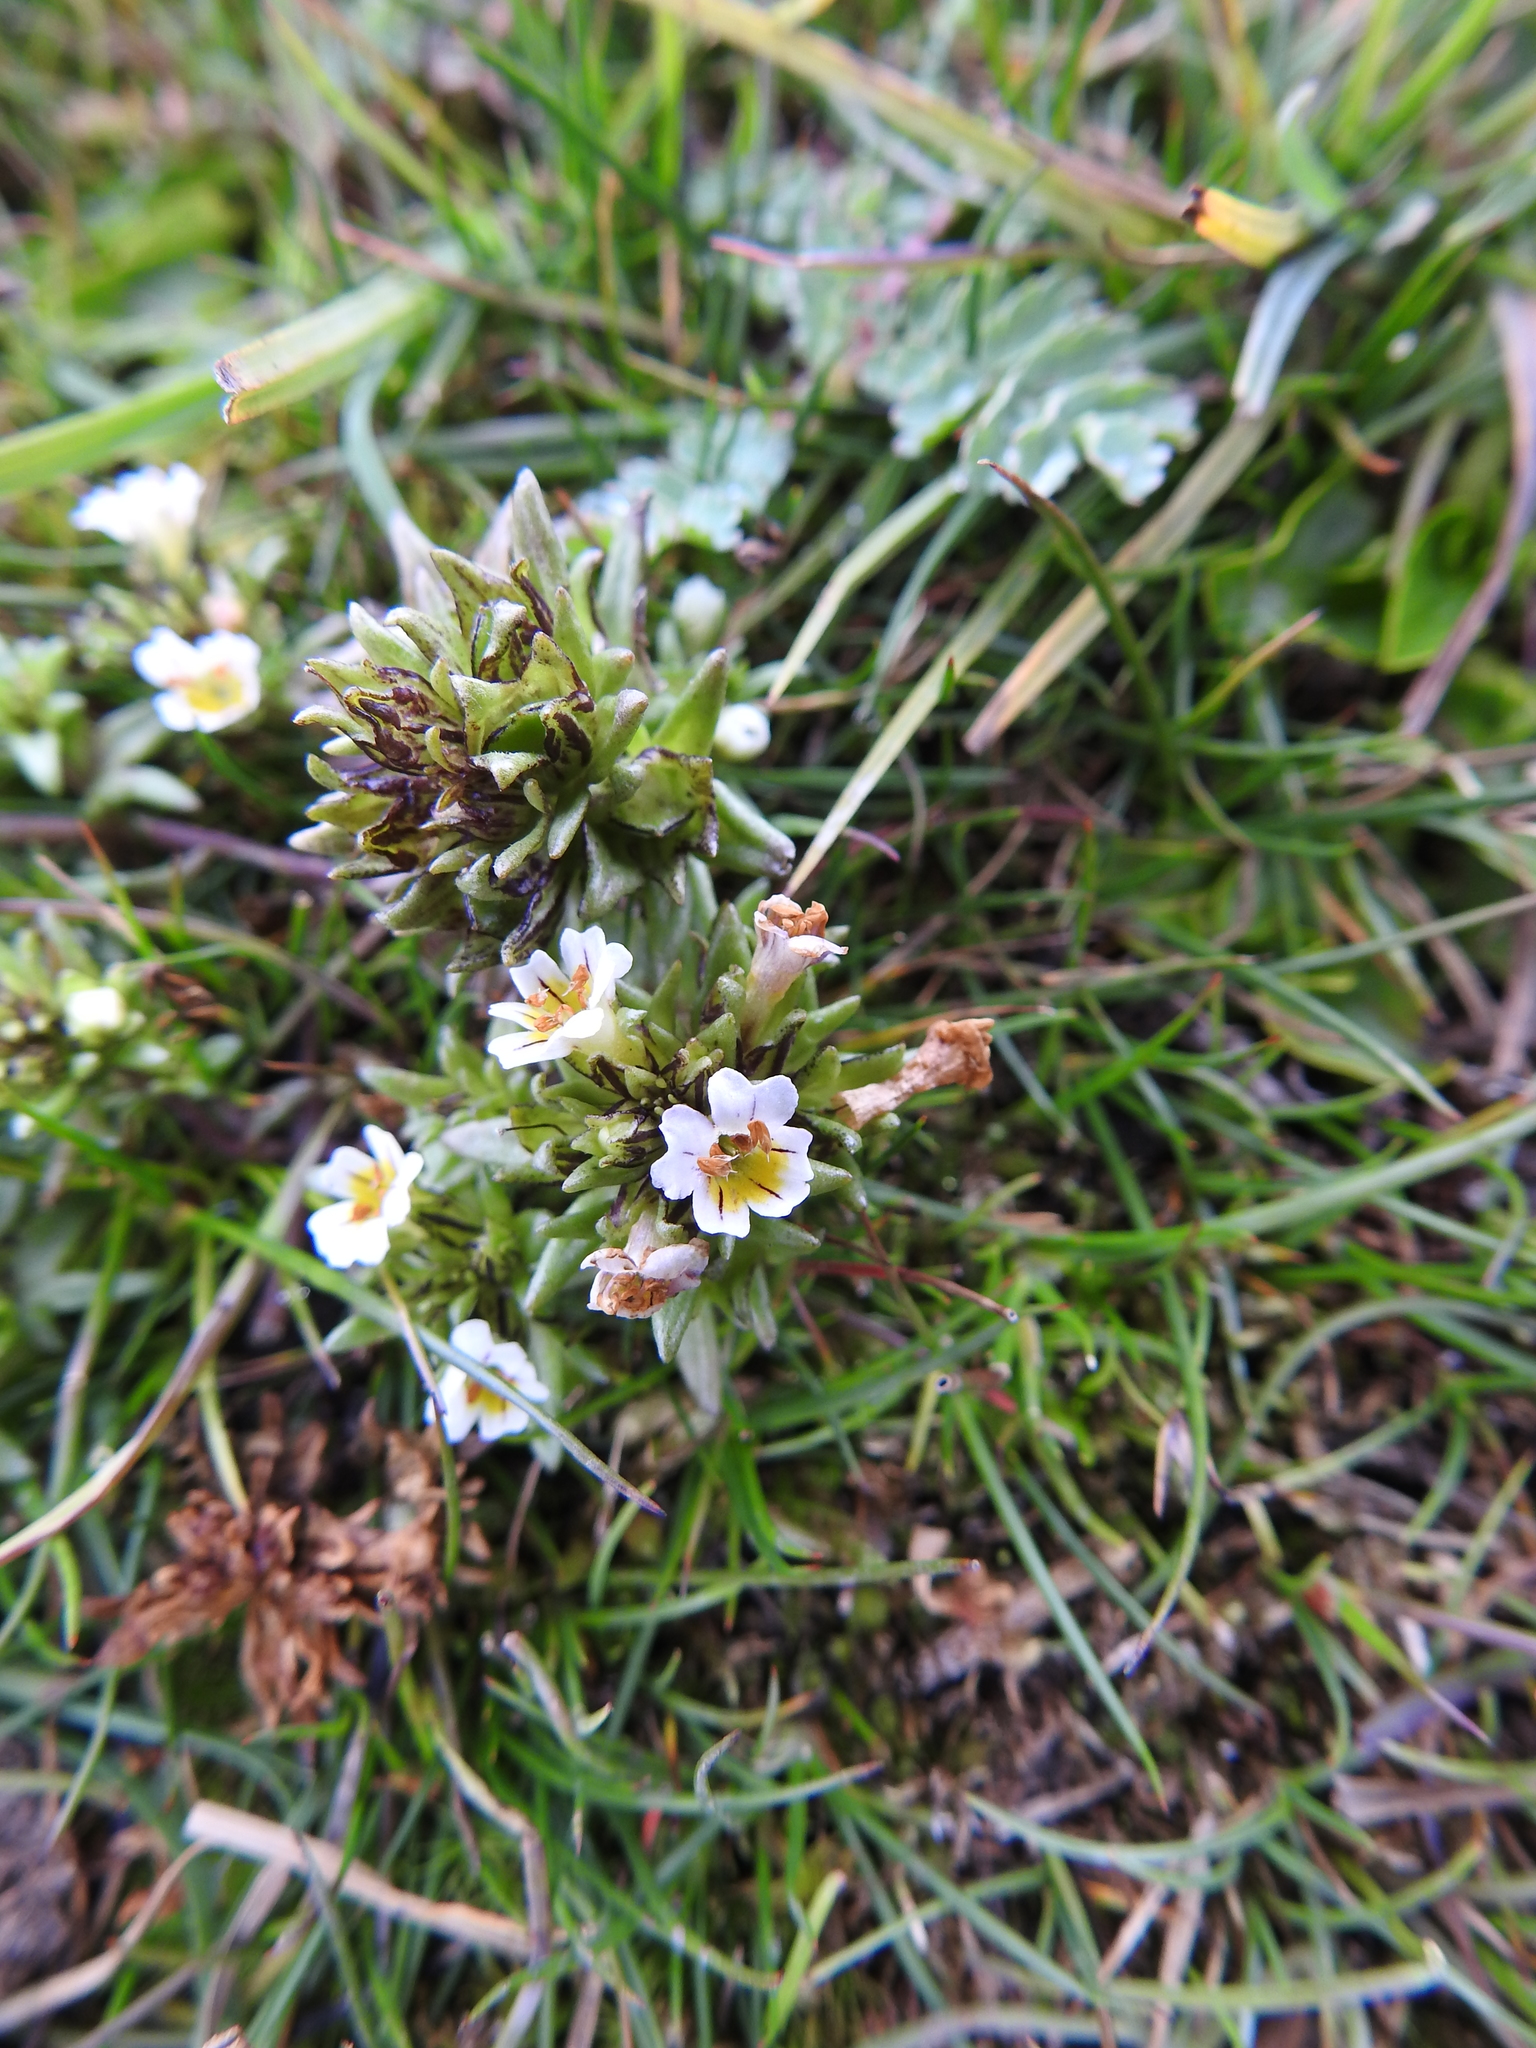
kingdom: Plantae
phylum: Tracheophyta
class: Magnoliopsida
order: Lamiales
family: Orobanchaceae
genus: Euphrasia
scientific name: Euphrasia antarctica
